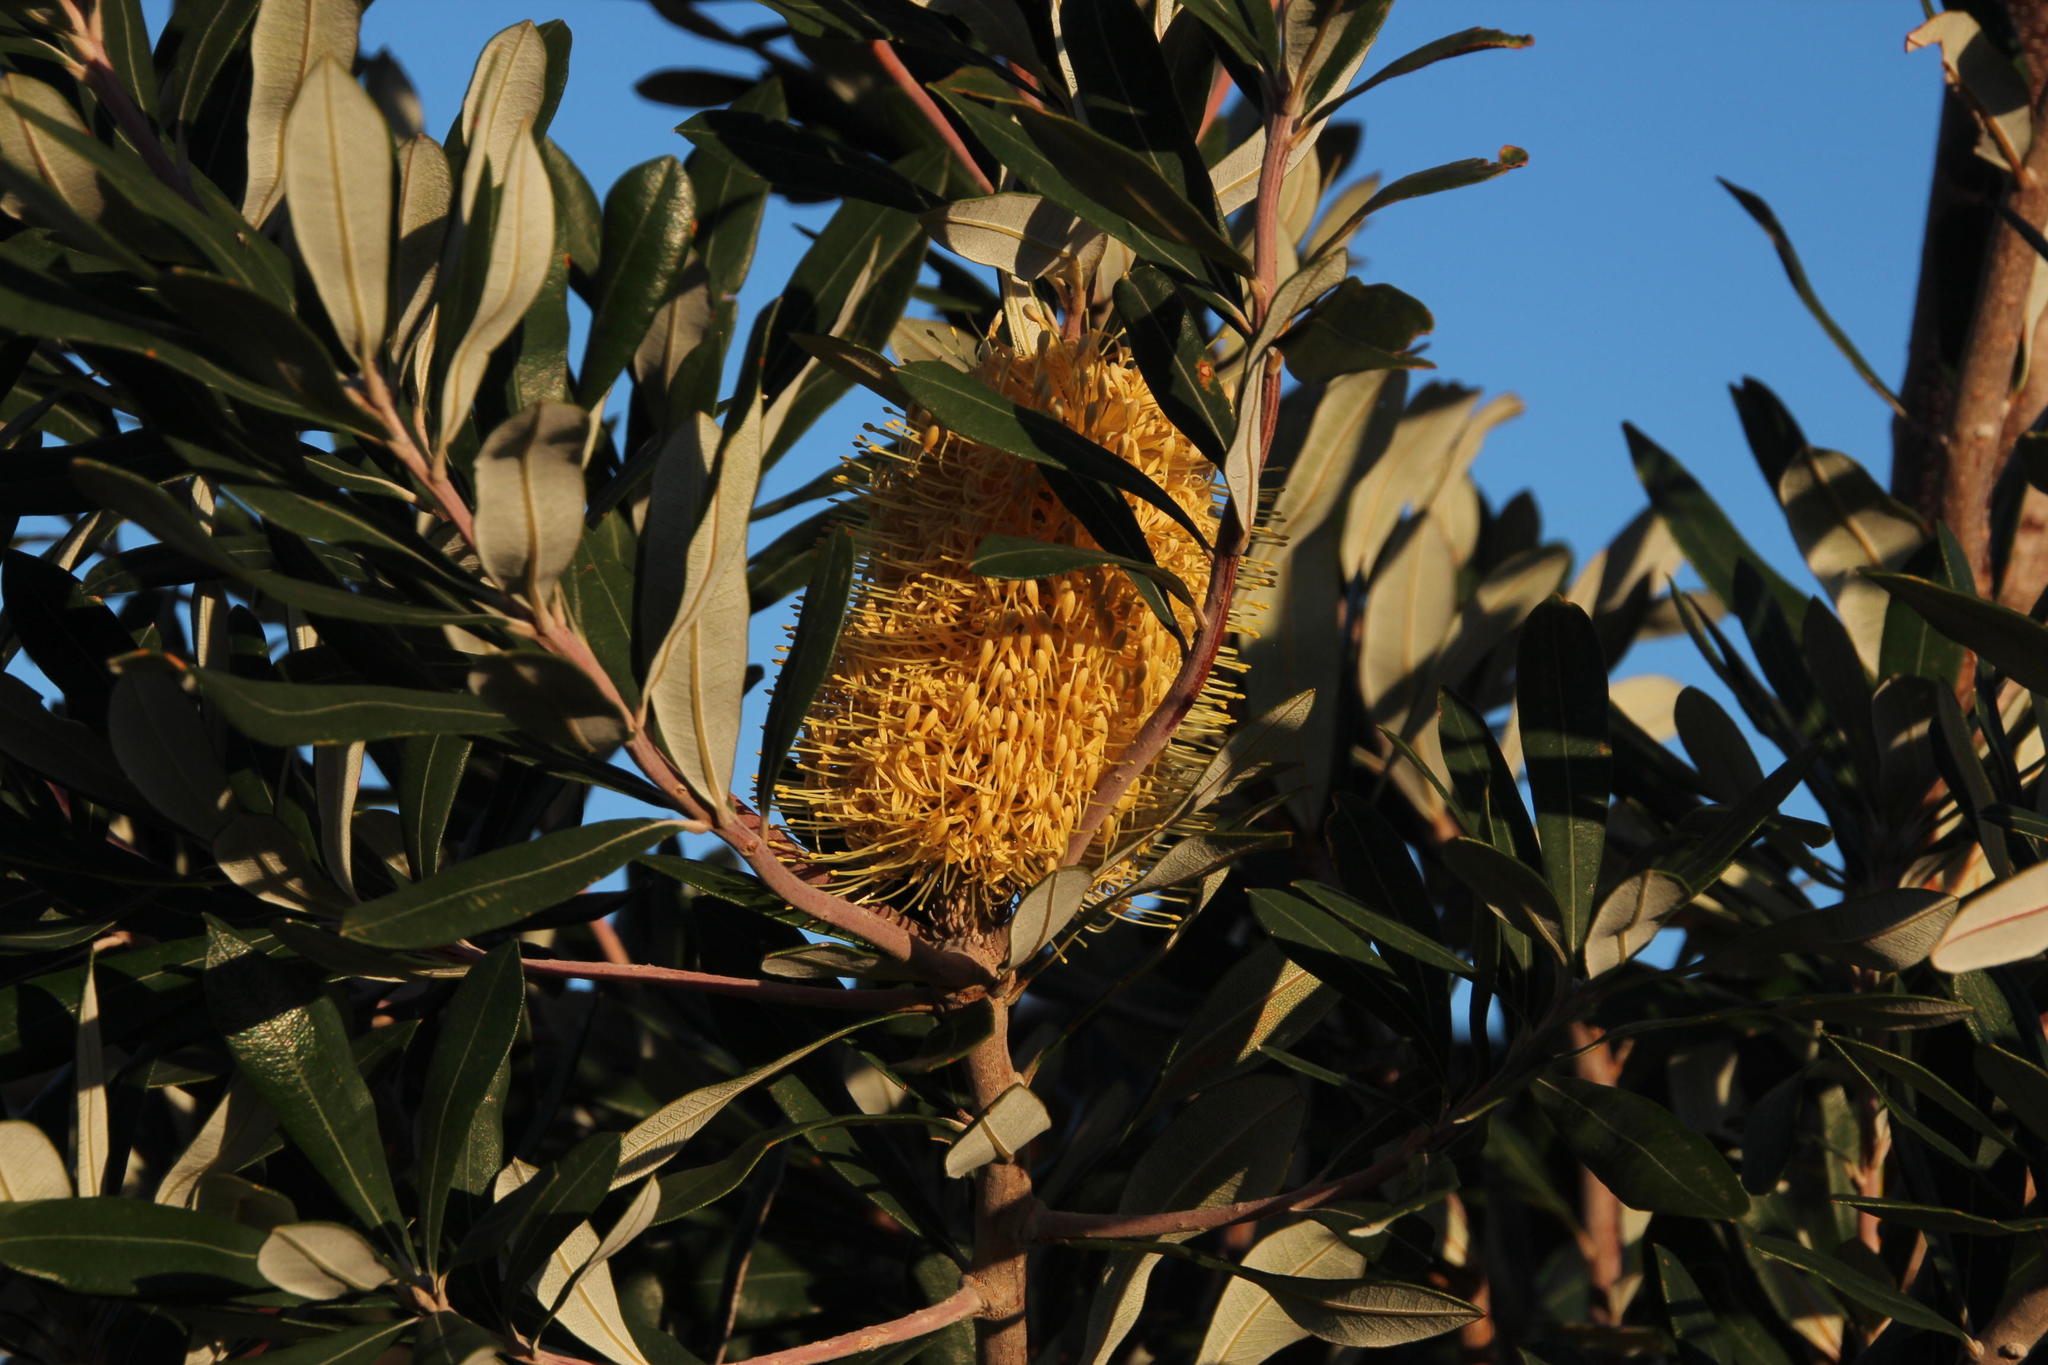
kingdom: Plantae
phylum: Tracheophyta
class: Magnoliopsida
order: Proteales
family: Proteaceae
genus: Banksia
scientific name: Banksia integrifolia
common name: White-honeysuckle
